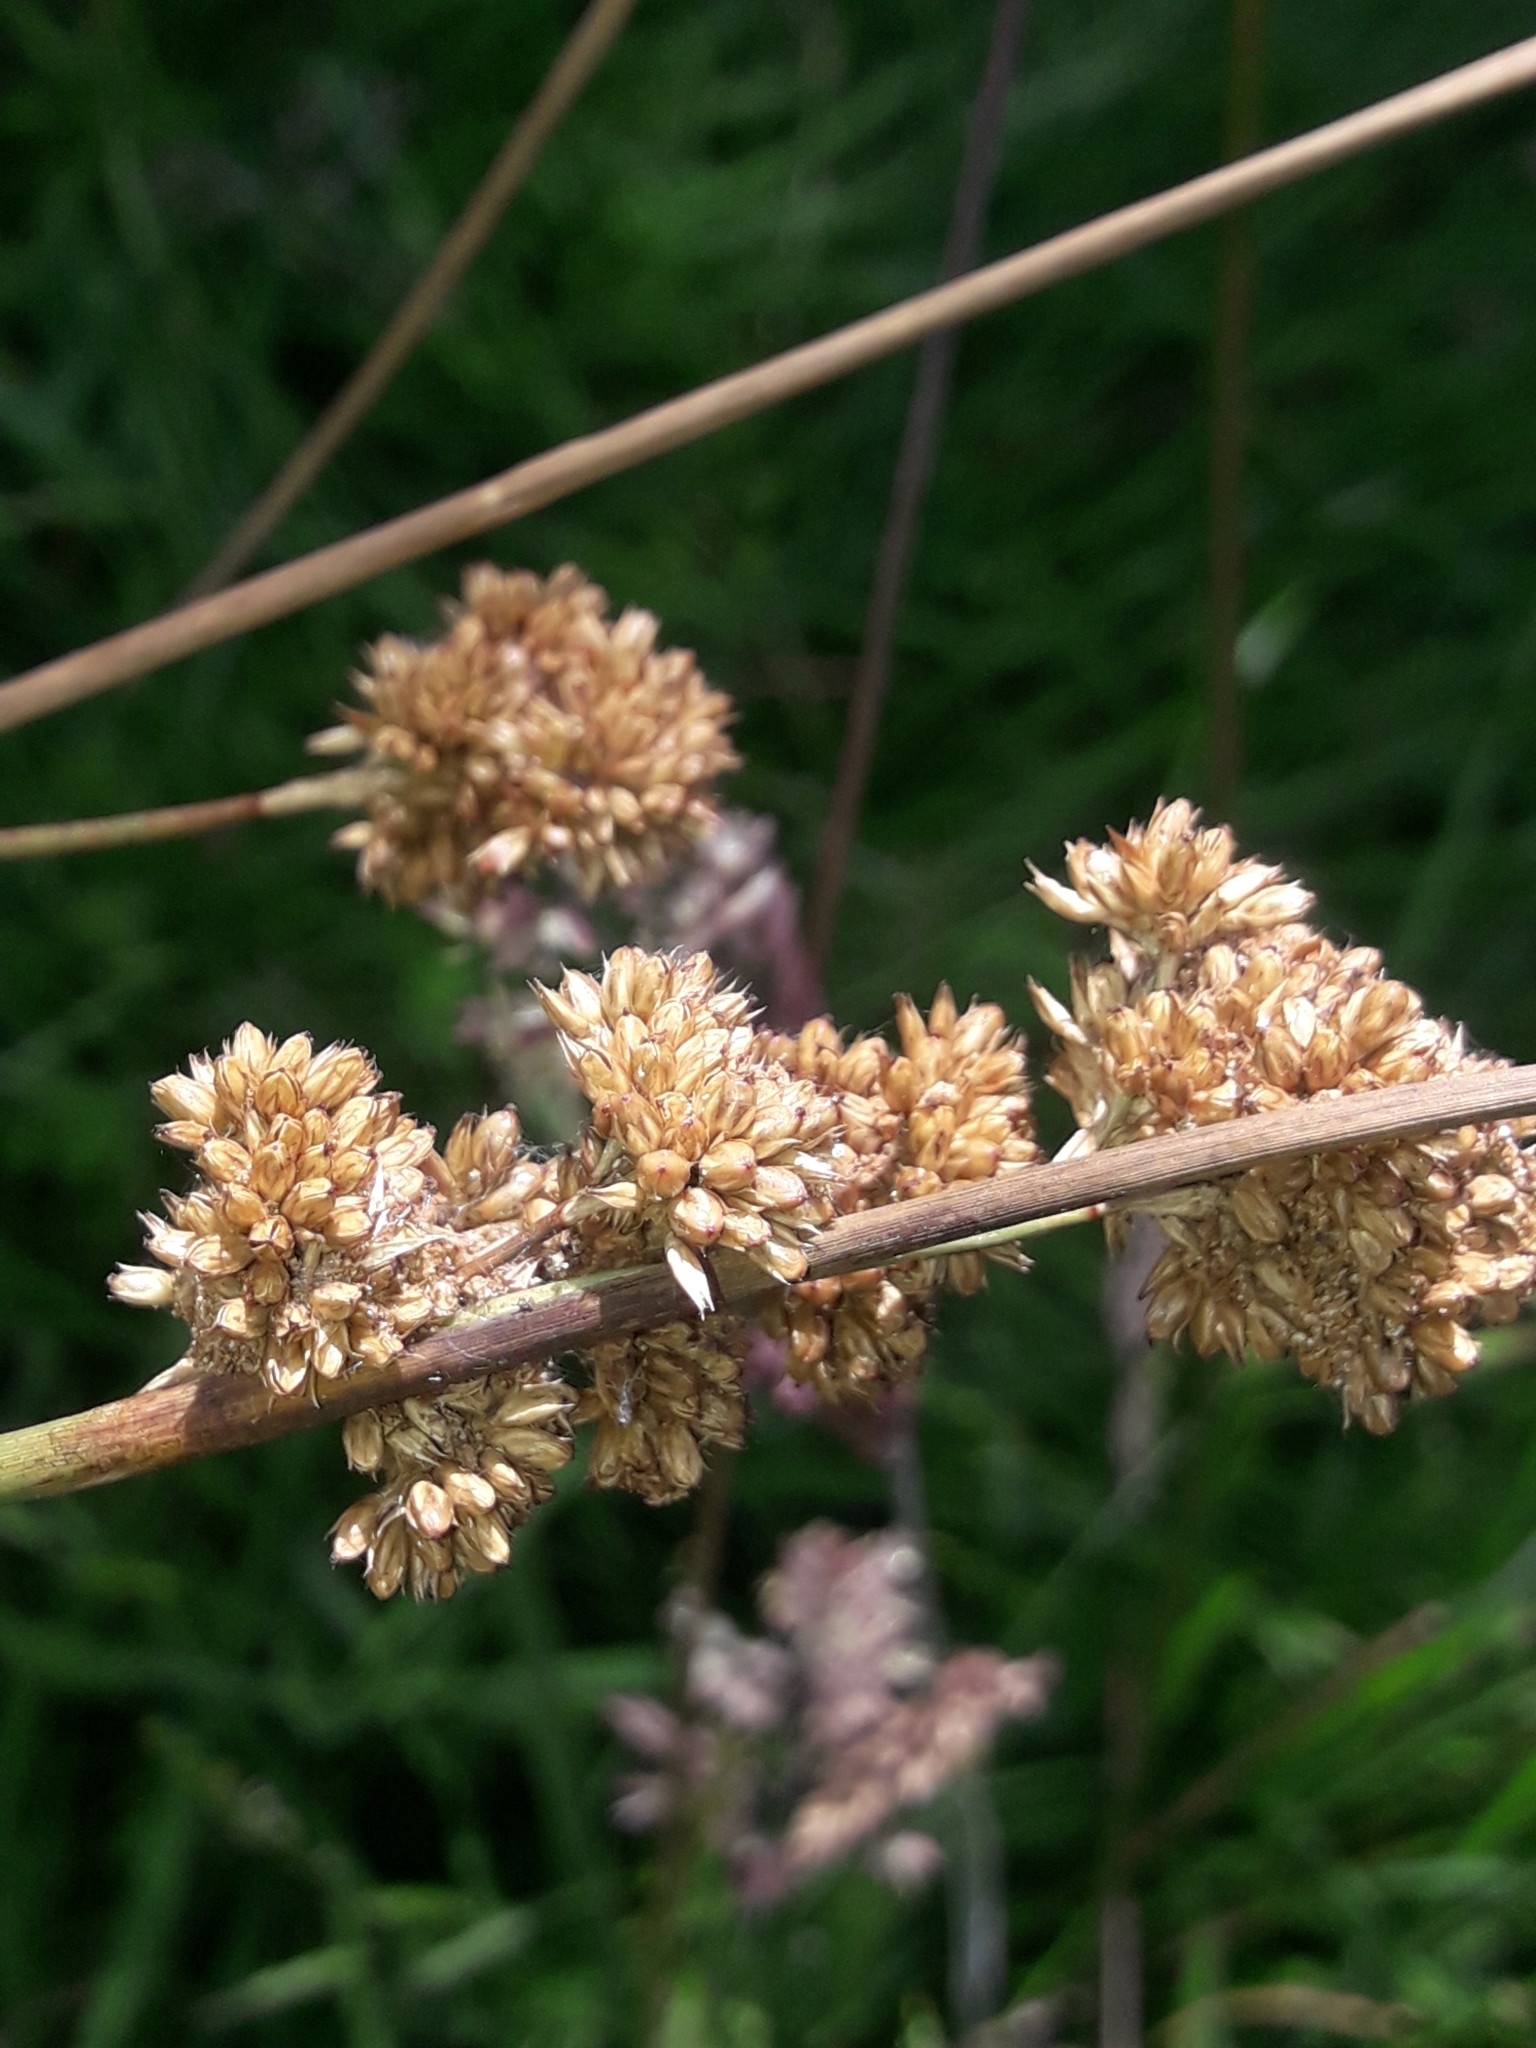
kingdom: Plantae
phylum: Tracheophyta
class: Liliopsida
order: Poales
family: Juncaceae
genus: Juncus
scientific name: Juncus australis
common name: Austral rush
